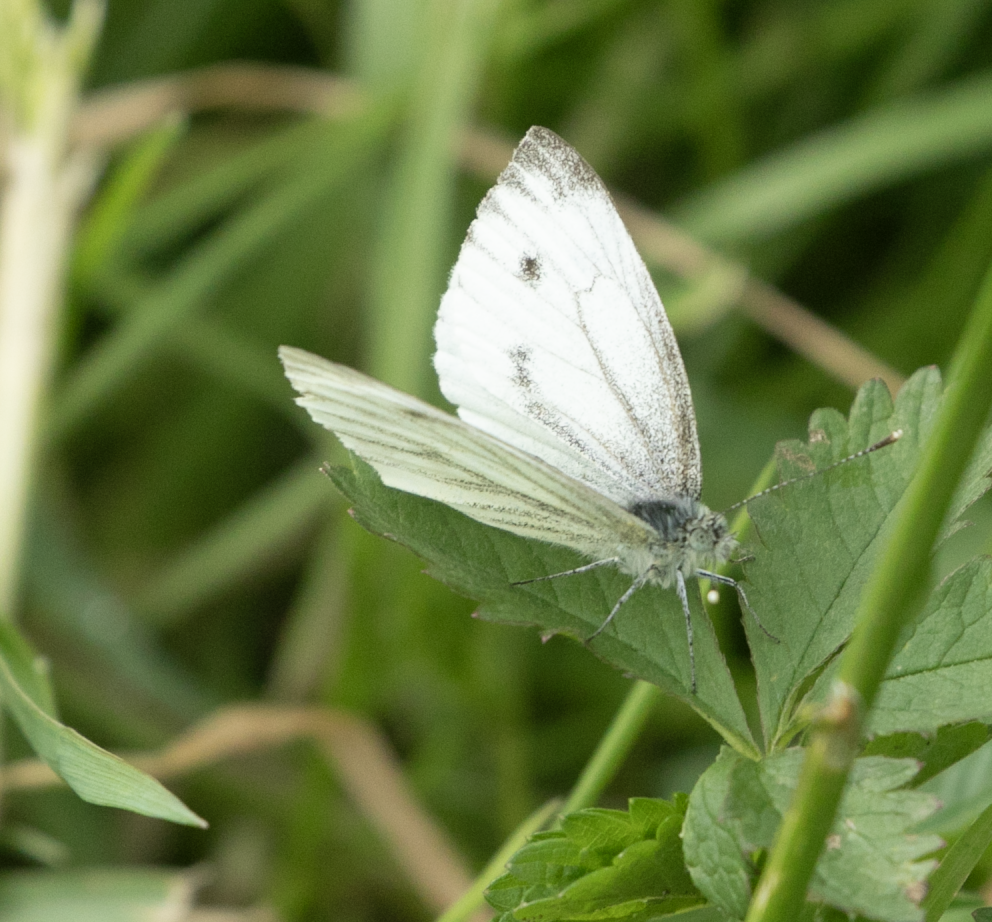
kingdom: Animalia
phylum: Arthropoda
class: Insecta
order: Lepidoptera
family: Pieridae
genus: Pieris
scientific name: Pieris napi
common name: Green-veined white
